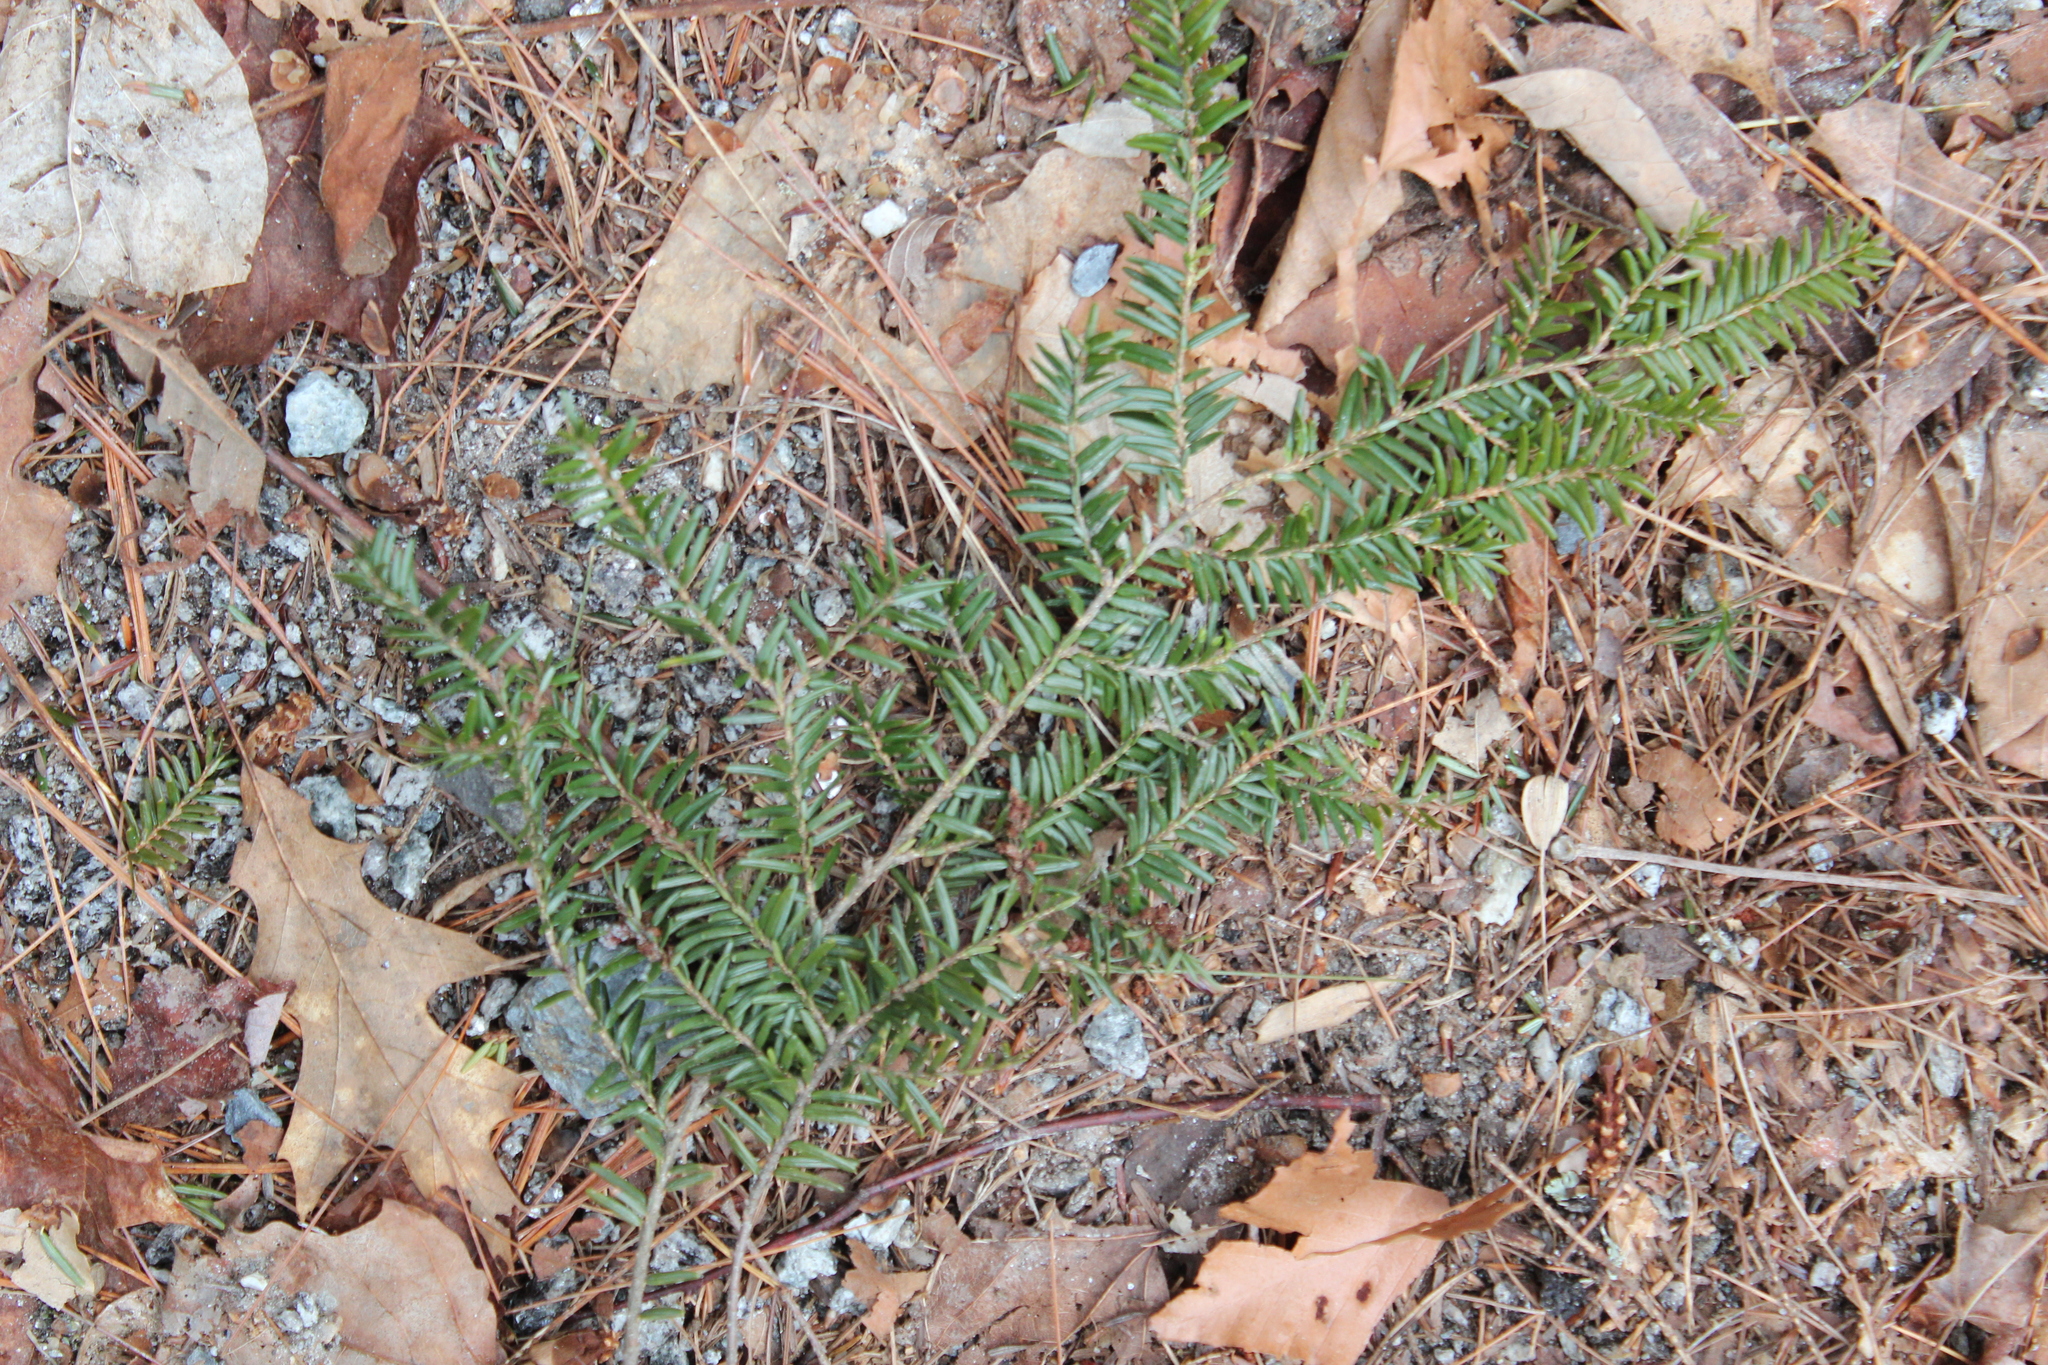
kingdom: Plantae
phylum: Tracheophyta
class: Pinopsida
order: Pinales
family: Pinaceae
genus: Tsuga
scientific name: Tsuga canadensis
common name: Eastern hemlock
